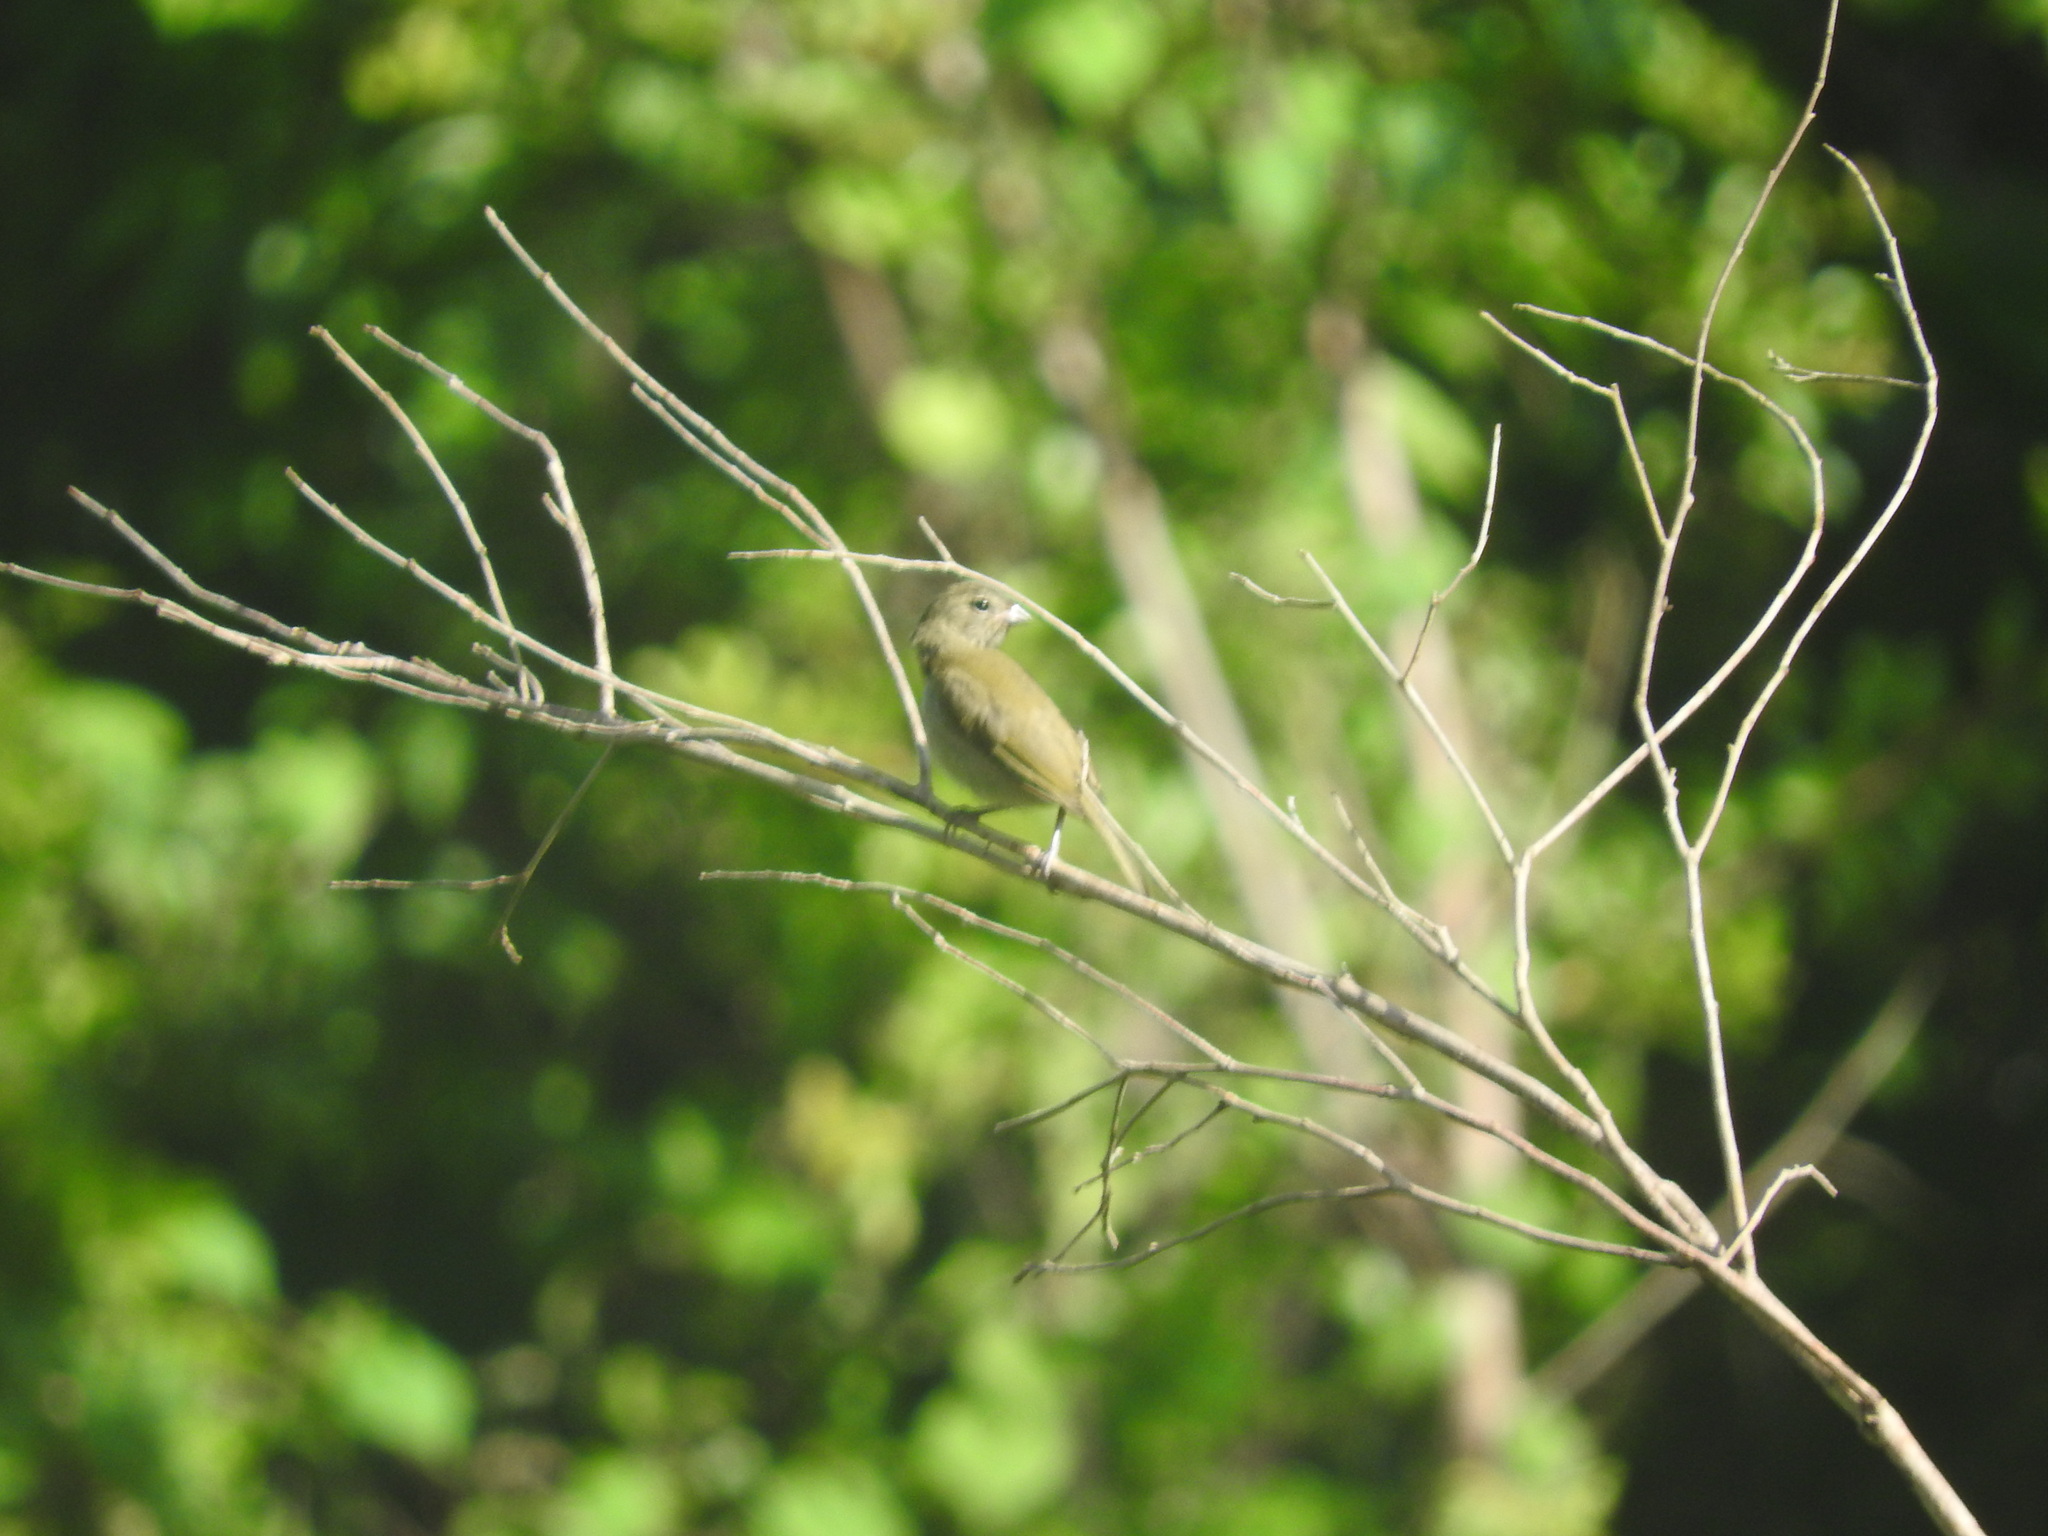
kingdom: Animalia
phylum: Chordata
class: Aves
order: Passeriformes
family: Thraupidae
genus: Tiaris
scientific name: Tiaris olivaceus
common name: Yellow-faced grassquit
